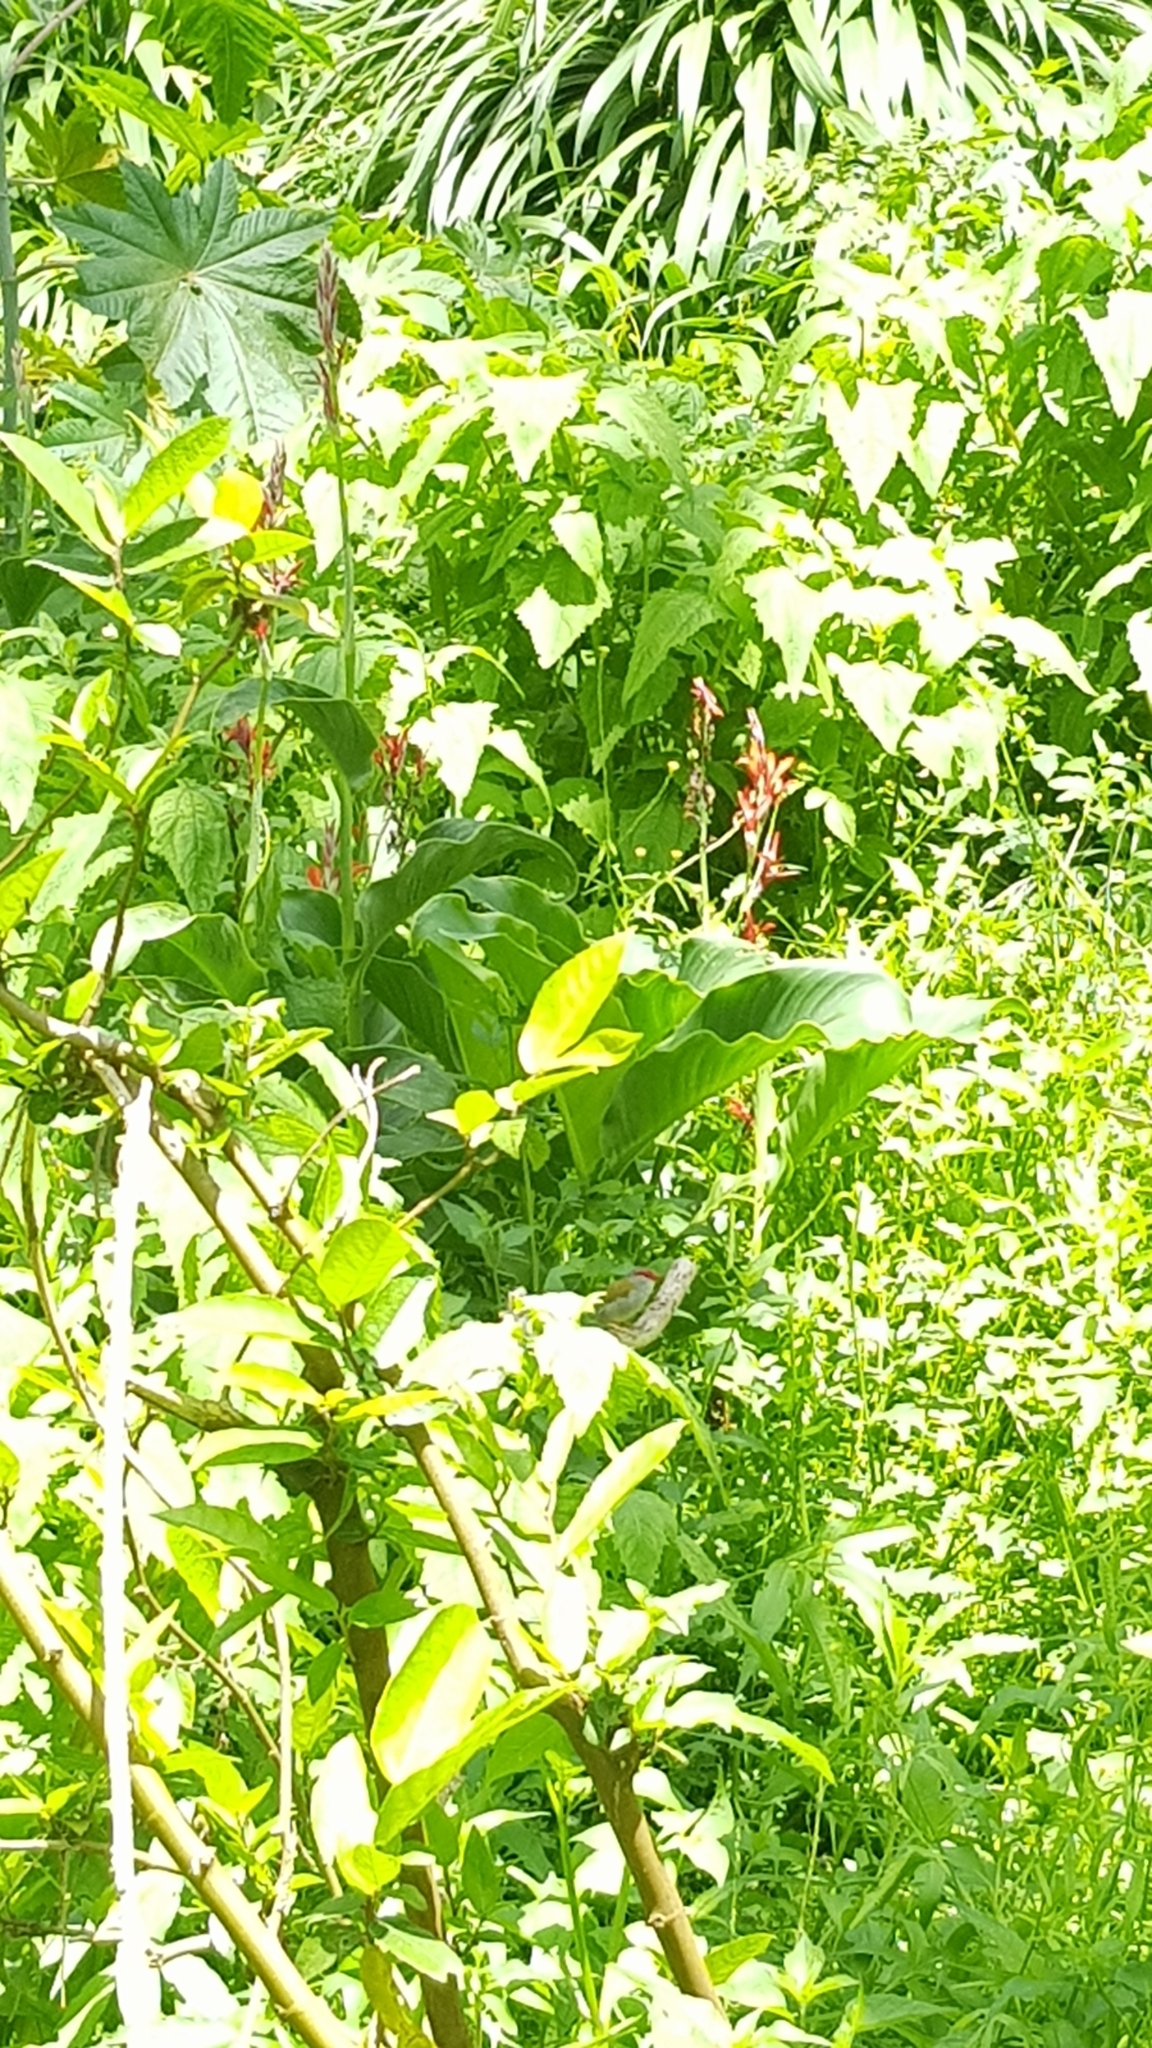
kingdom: Animalia
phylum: Chordata
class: Aves
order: Passeriformes
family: Estrildidae
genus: Neochmia
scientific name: Neochmia temporalis
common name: Red-browed finch
